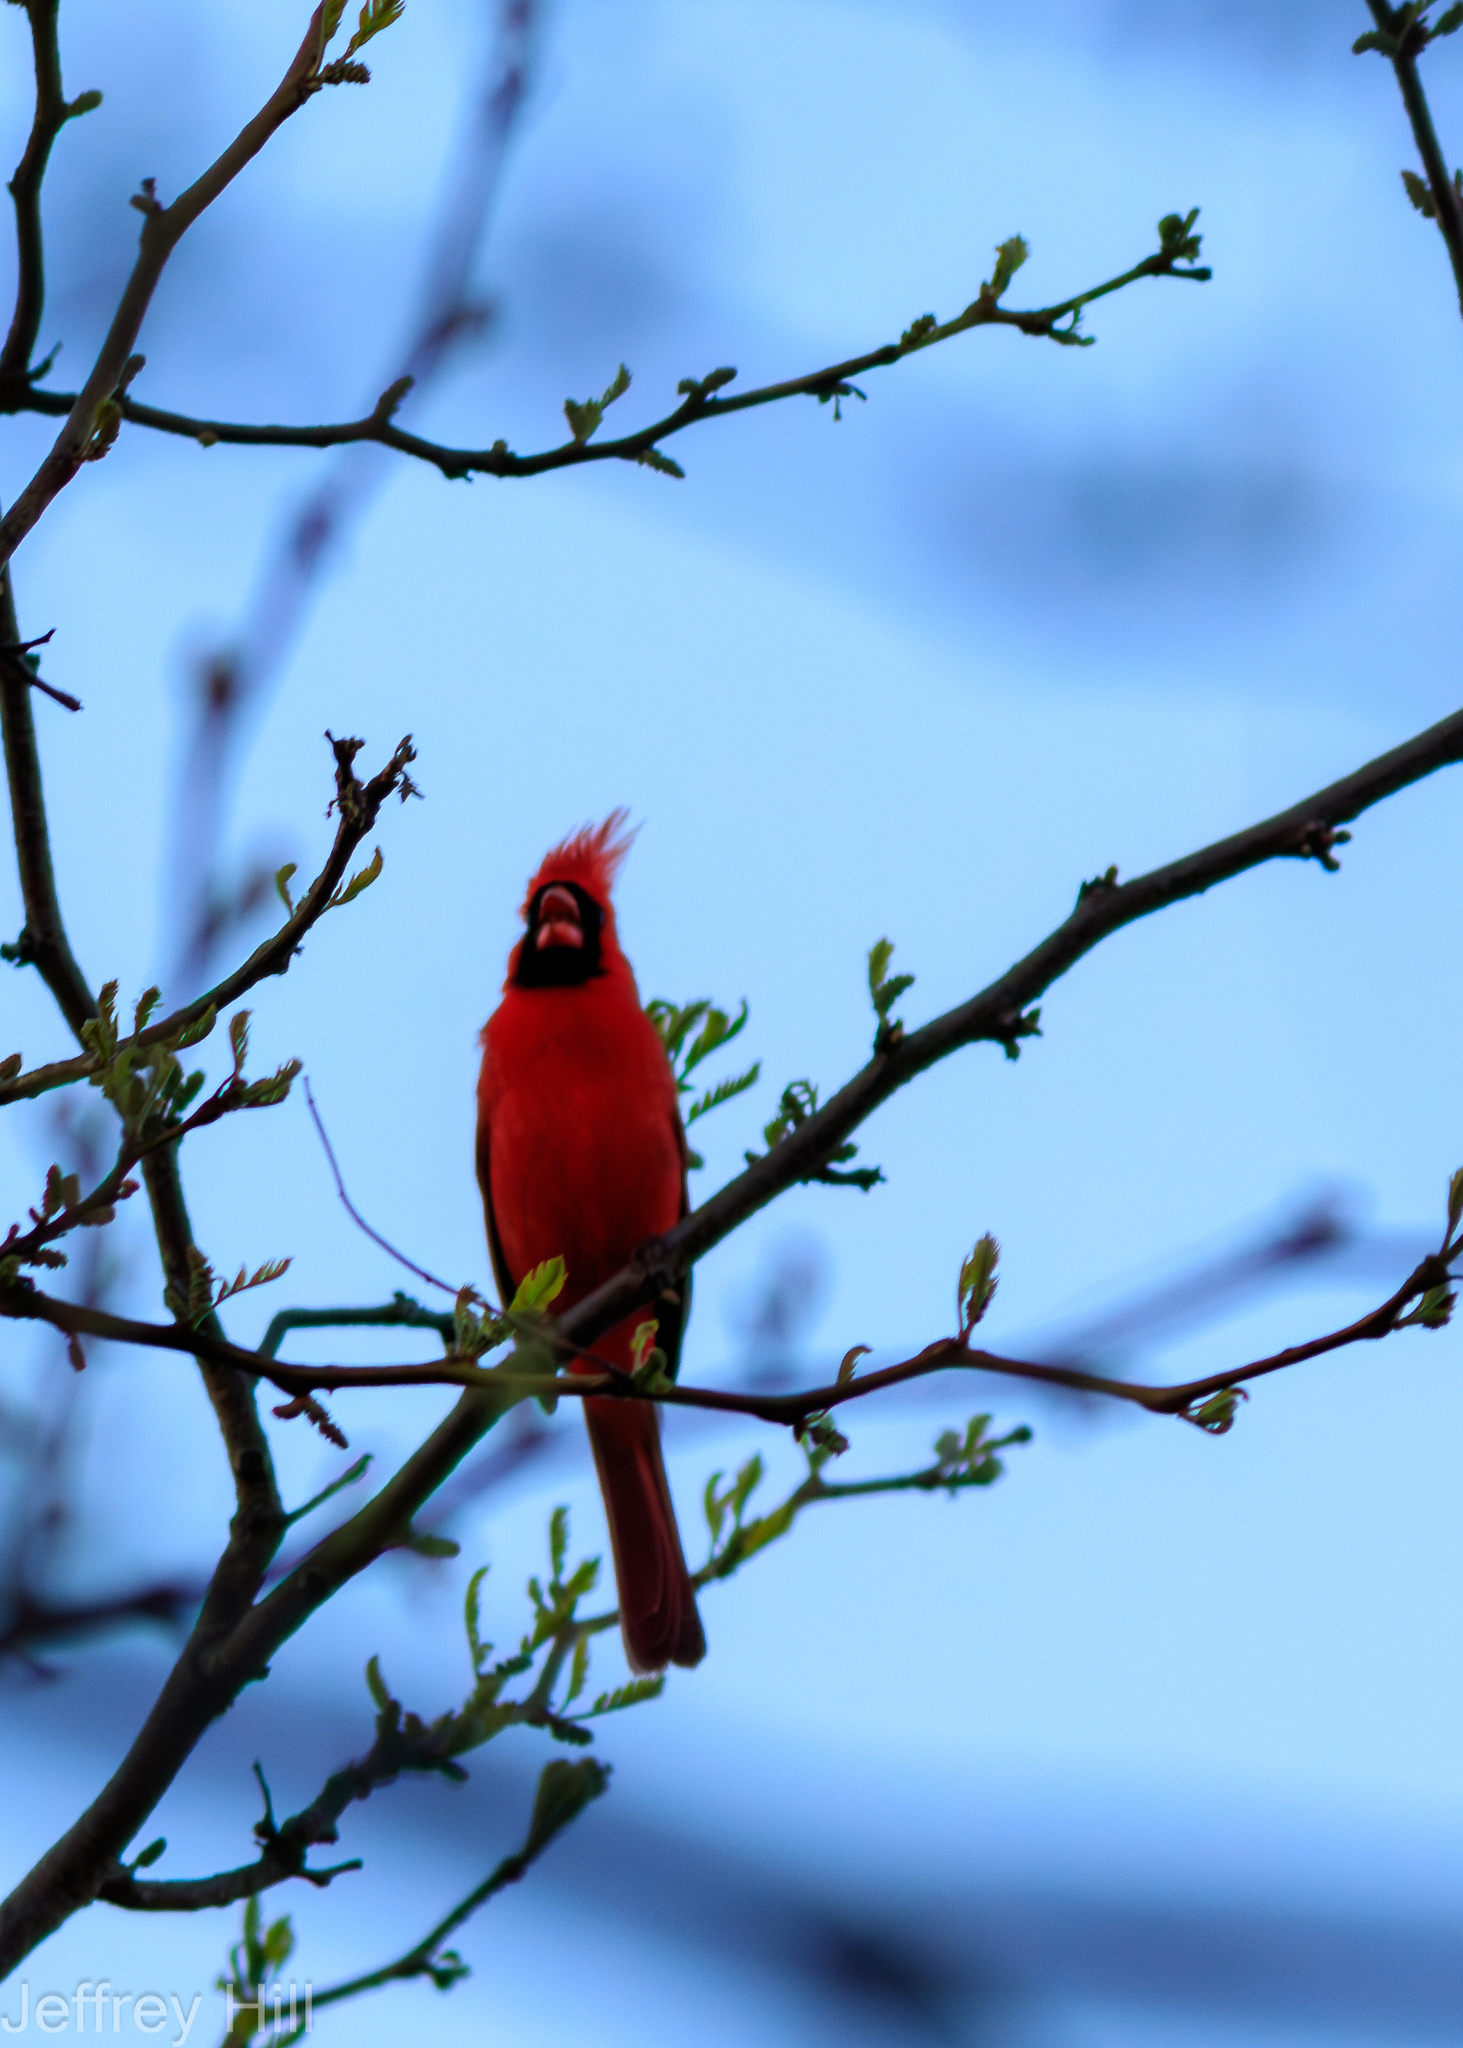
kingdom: Animalia
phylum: Chordata
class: Aves
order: Passeriformes
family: Cardinalidae
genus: Cardinalis
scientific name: Cardinalis cardinalis
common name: Northern cardinal
